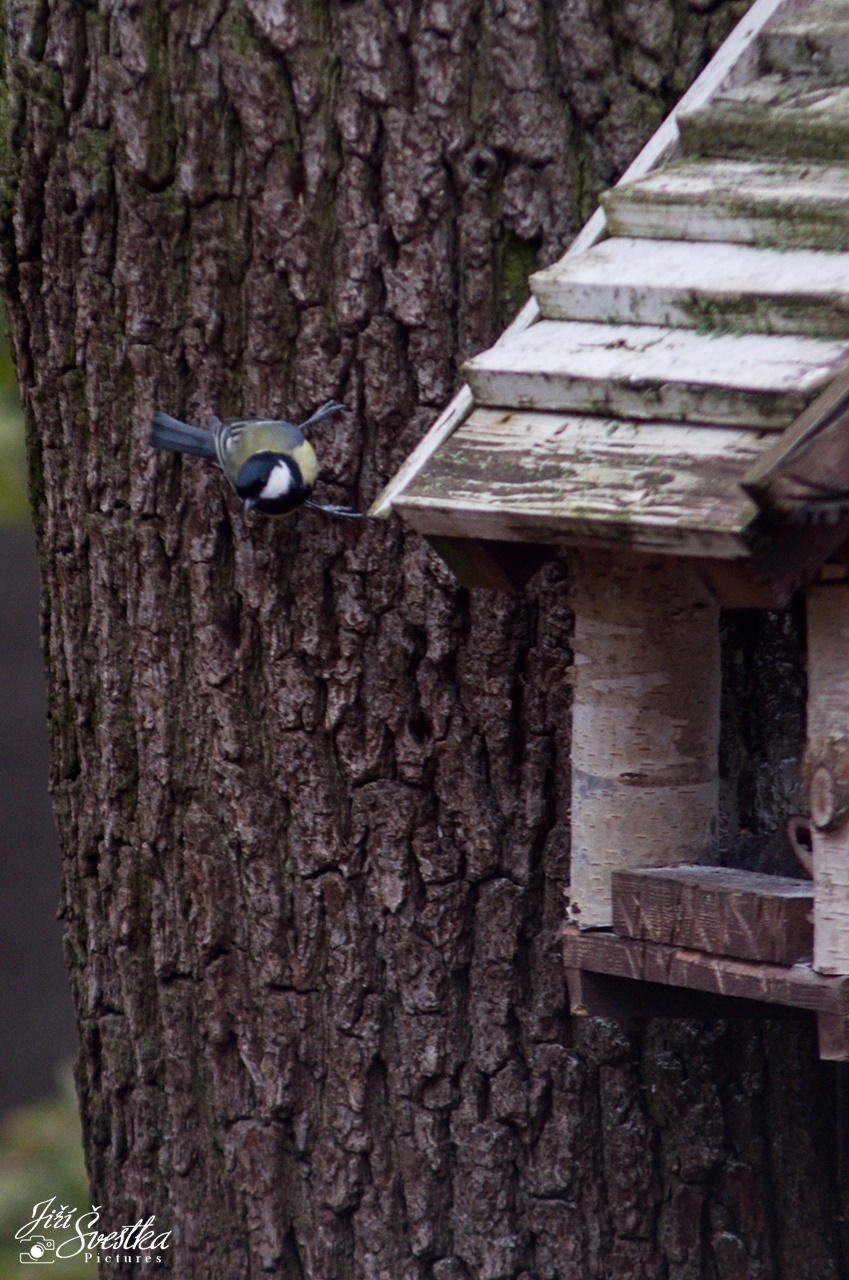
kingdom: Animalia
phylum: Chordata
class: Aves
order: Passeriformes
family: Paridae
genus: Parus
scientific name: Parus major
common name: Great tit
